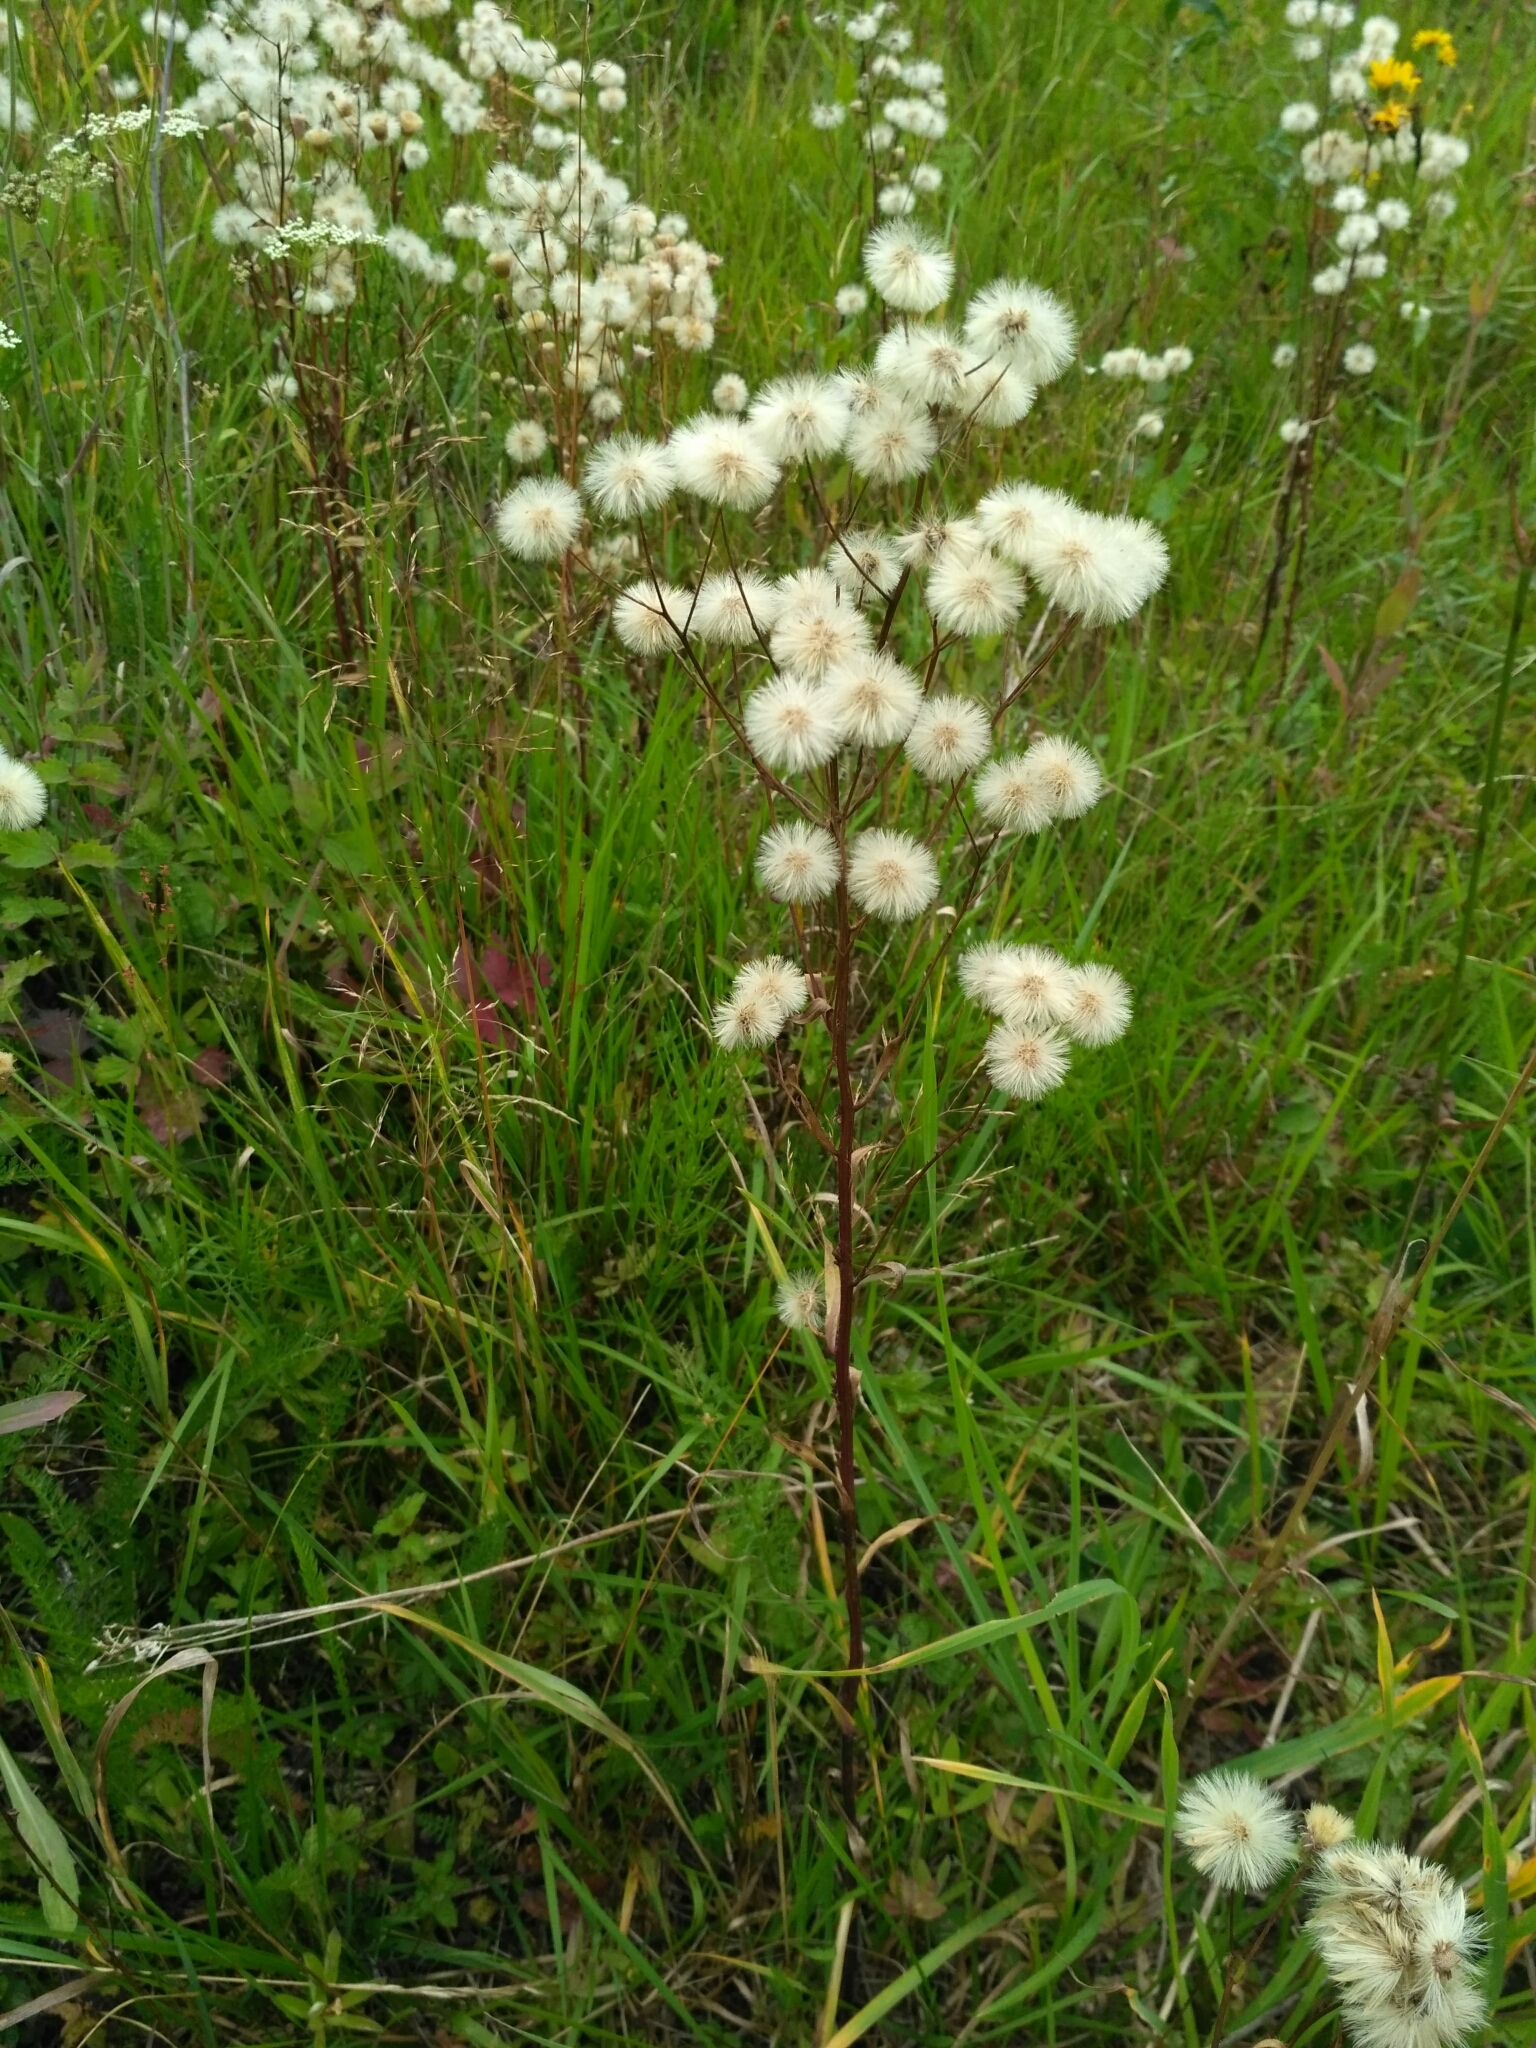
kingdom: Plantae
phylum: Tracheophyta
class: Magnoliopsida
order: Asterales
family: Asteraceae
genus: Erigeron
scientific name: Erigeron acris
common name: Blue fleabane
